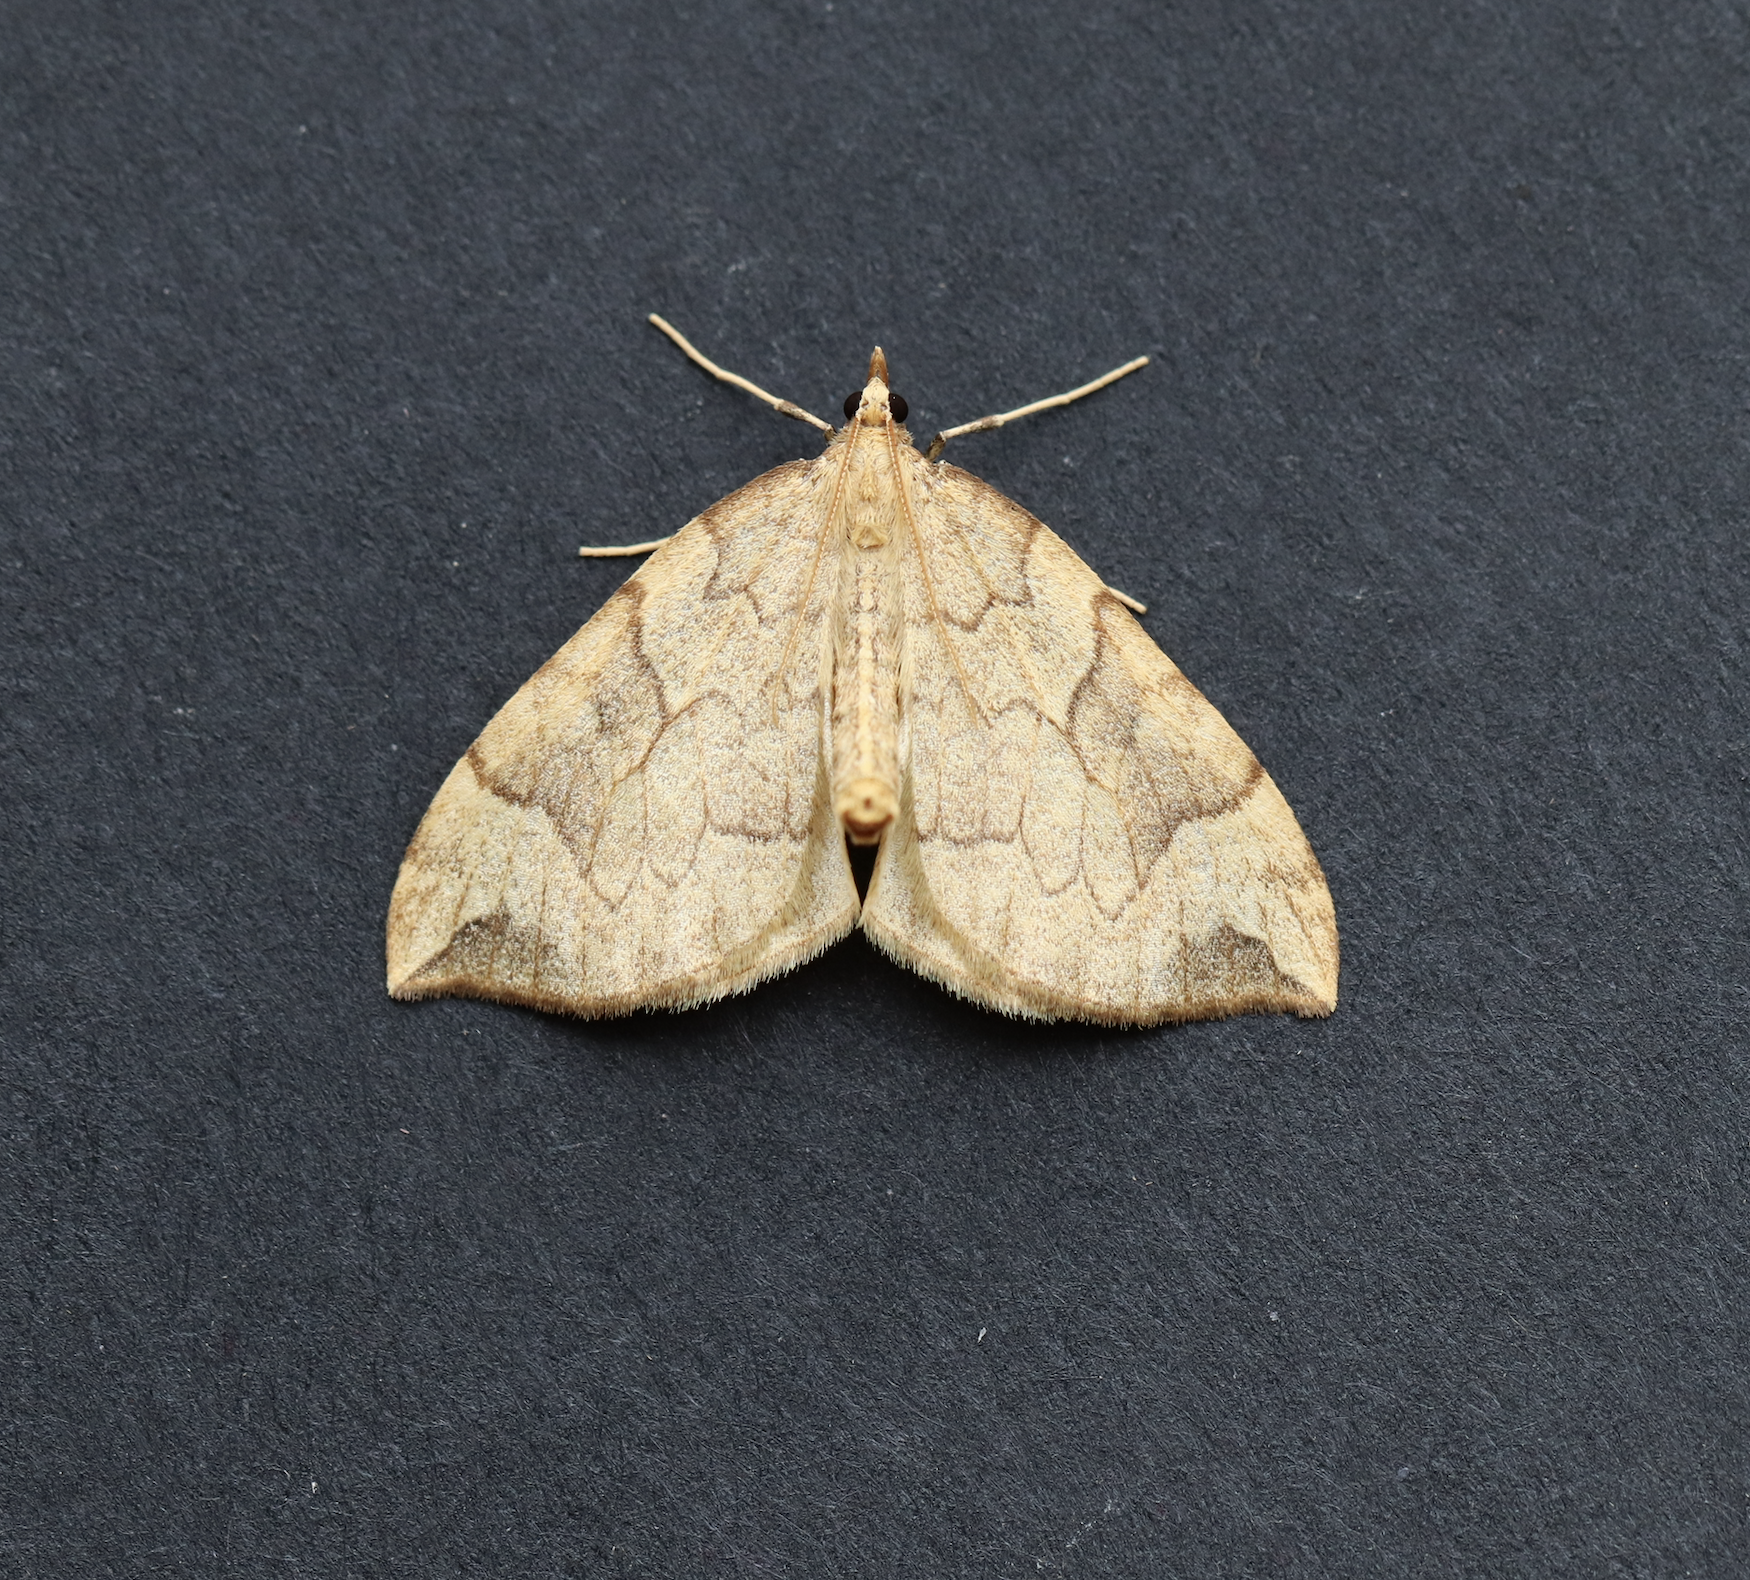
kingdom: Animalia
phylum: Arthropoda
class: Insecta
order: Lepidoptera
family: Geometridae
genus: Eulithis
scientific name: Eulithis propulsata
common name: Currant eulithis moth
